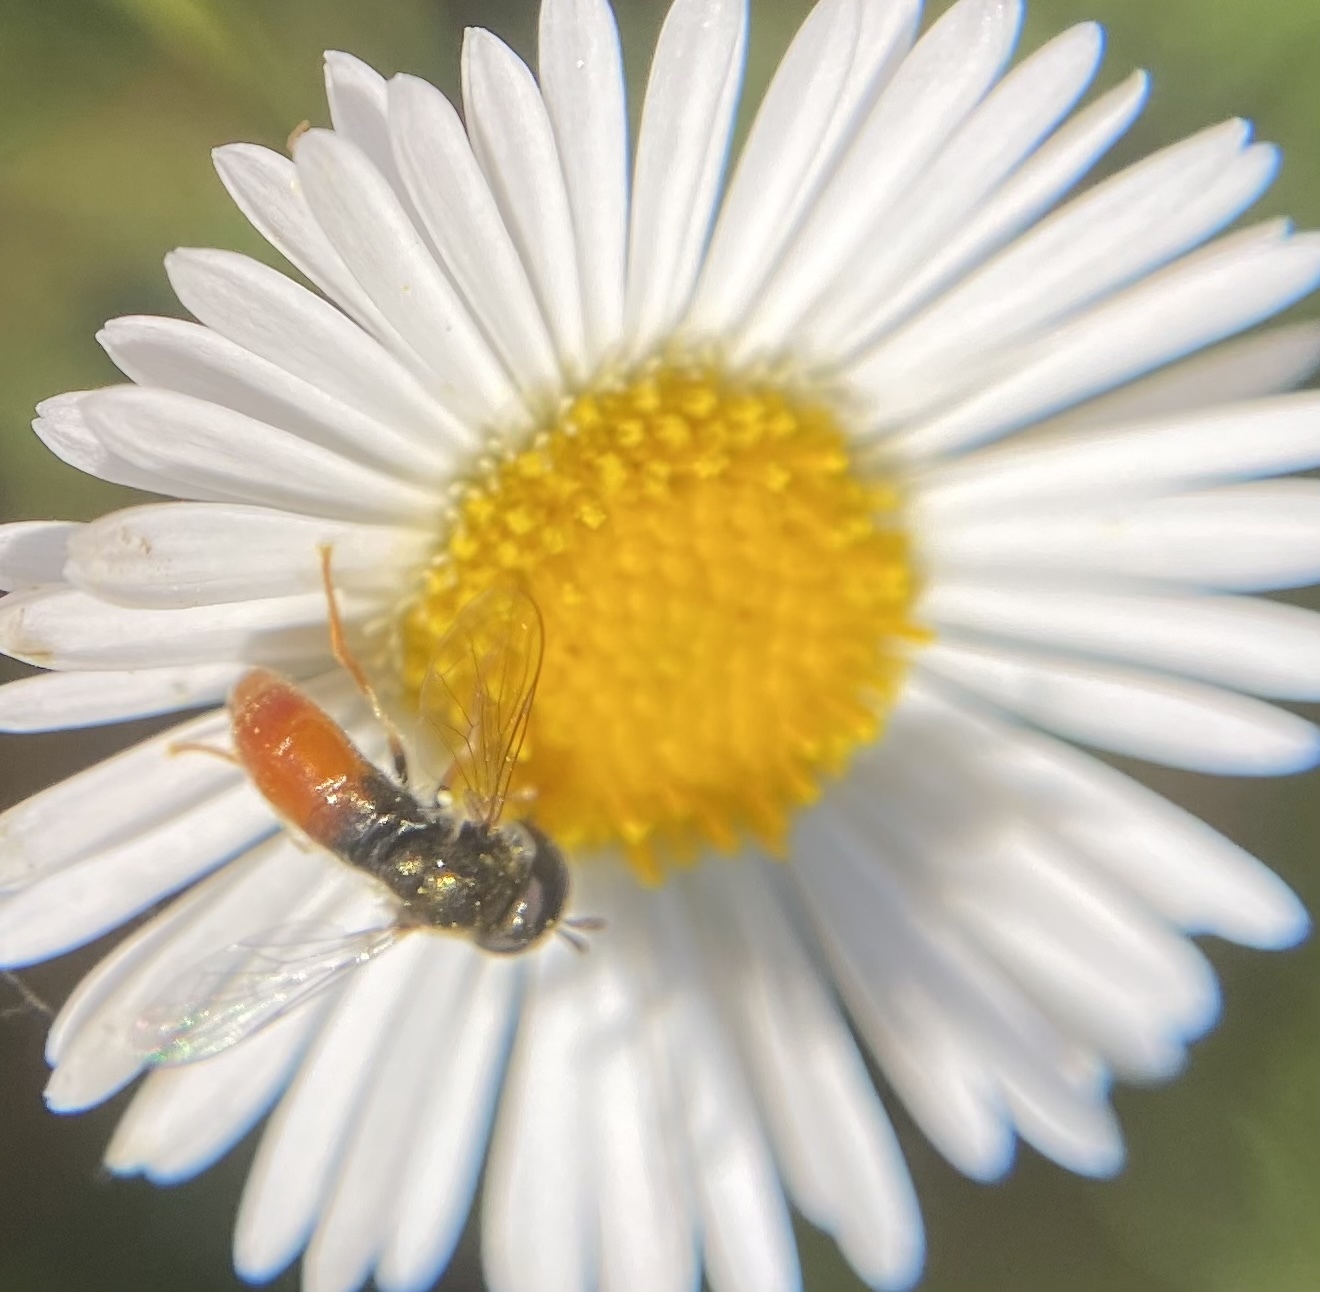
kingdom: Animalia
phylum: Arthropoda
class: Insecta
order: Diptera
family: Syrphidae
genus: Paragus
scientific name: Paragus haemorrhous
